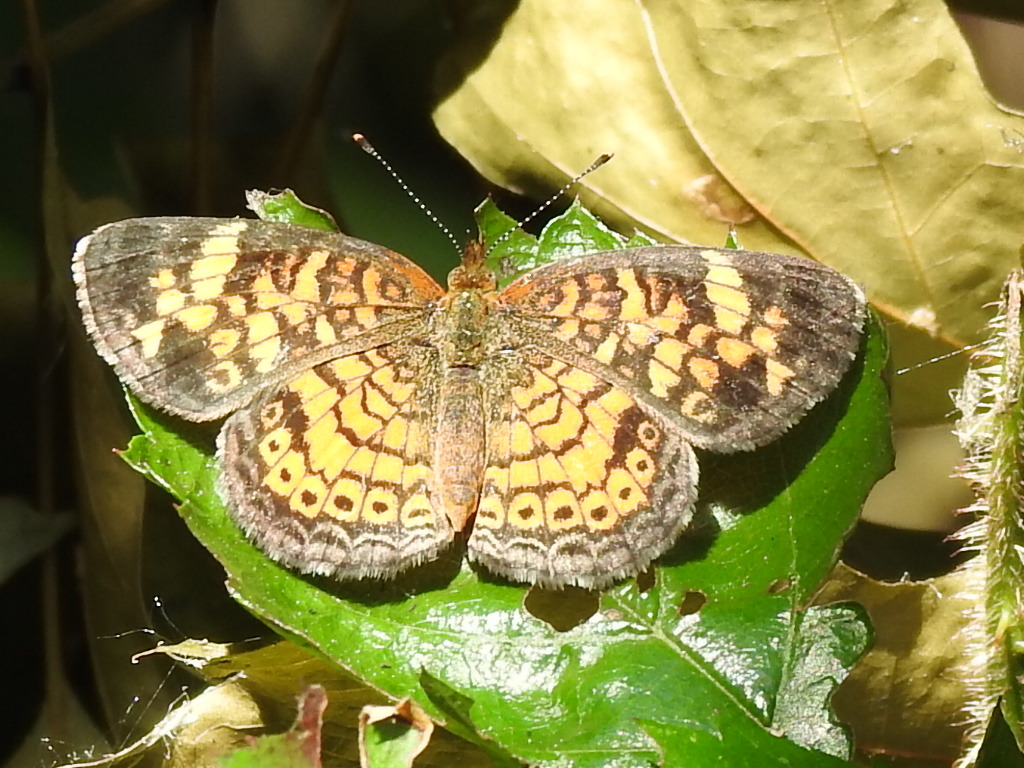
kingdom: Animalia
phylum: Arthropoda
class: Insecta
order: Lepidoptera
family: Nymphalidae
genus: Phyciodes
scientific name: Phyciodes tharos
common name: Pearl crescent
